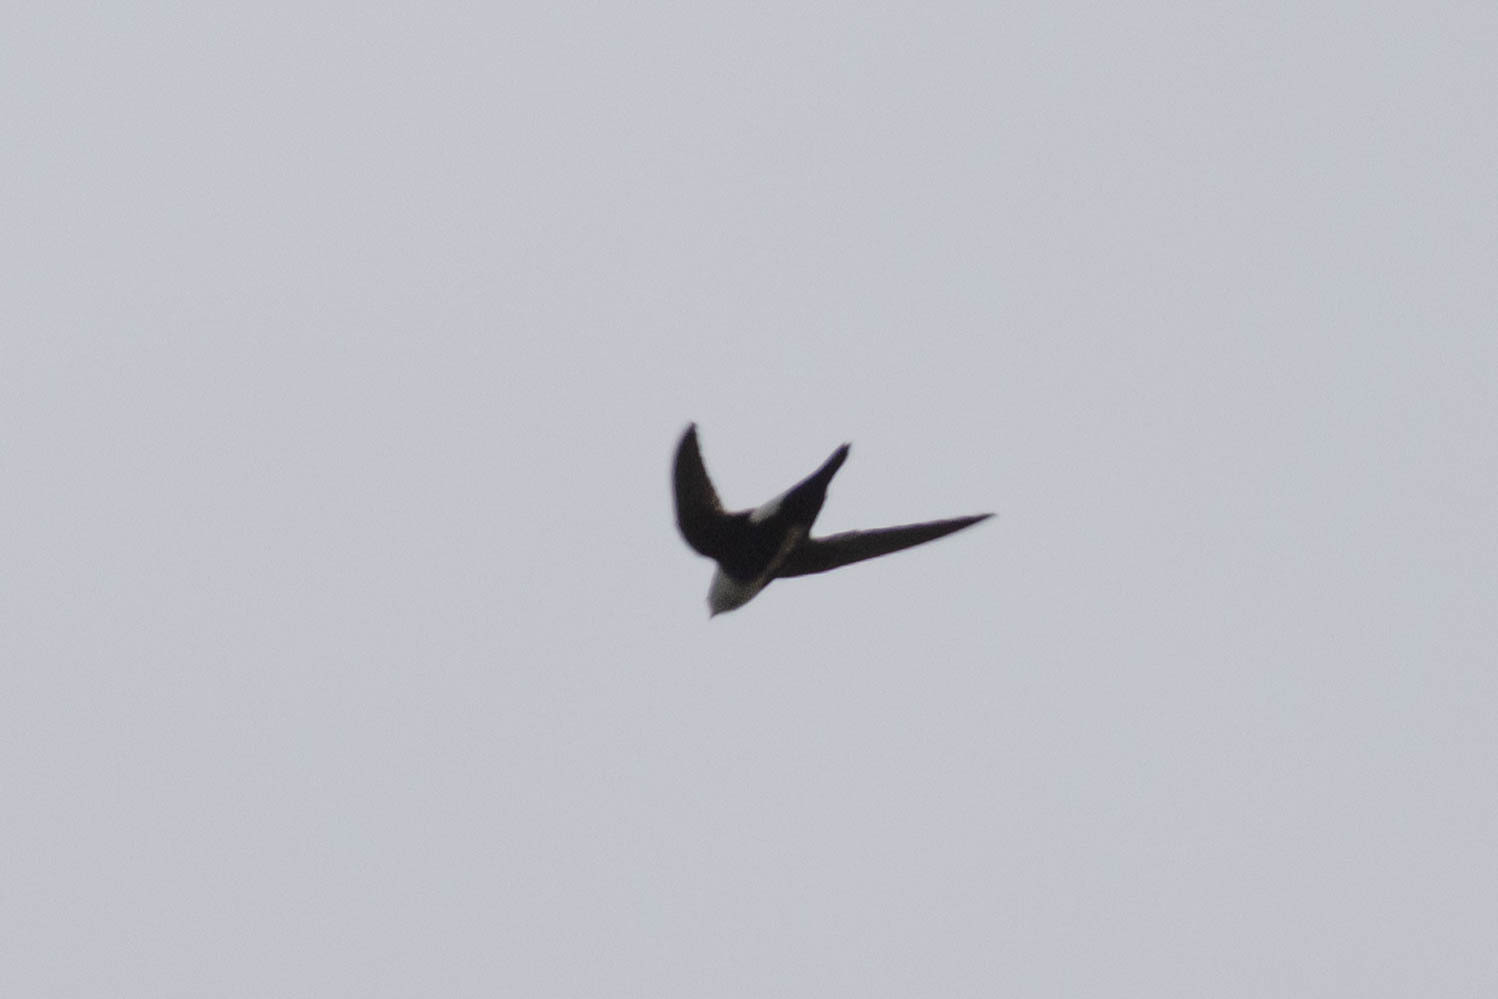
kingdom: Animalia
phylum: Chordata
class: Aves
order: Apodiformes
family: Apodidae
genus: Aeronautes
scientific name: Aeronautes saxatalis
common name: White-throated swift
